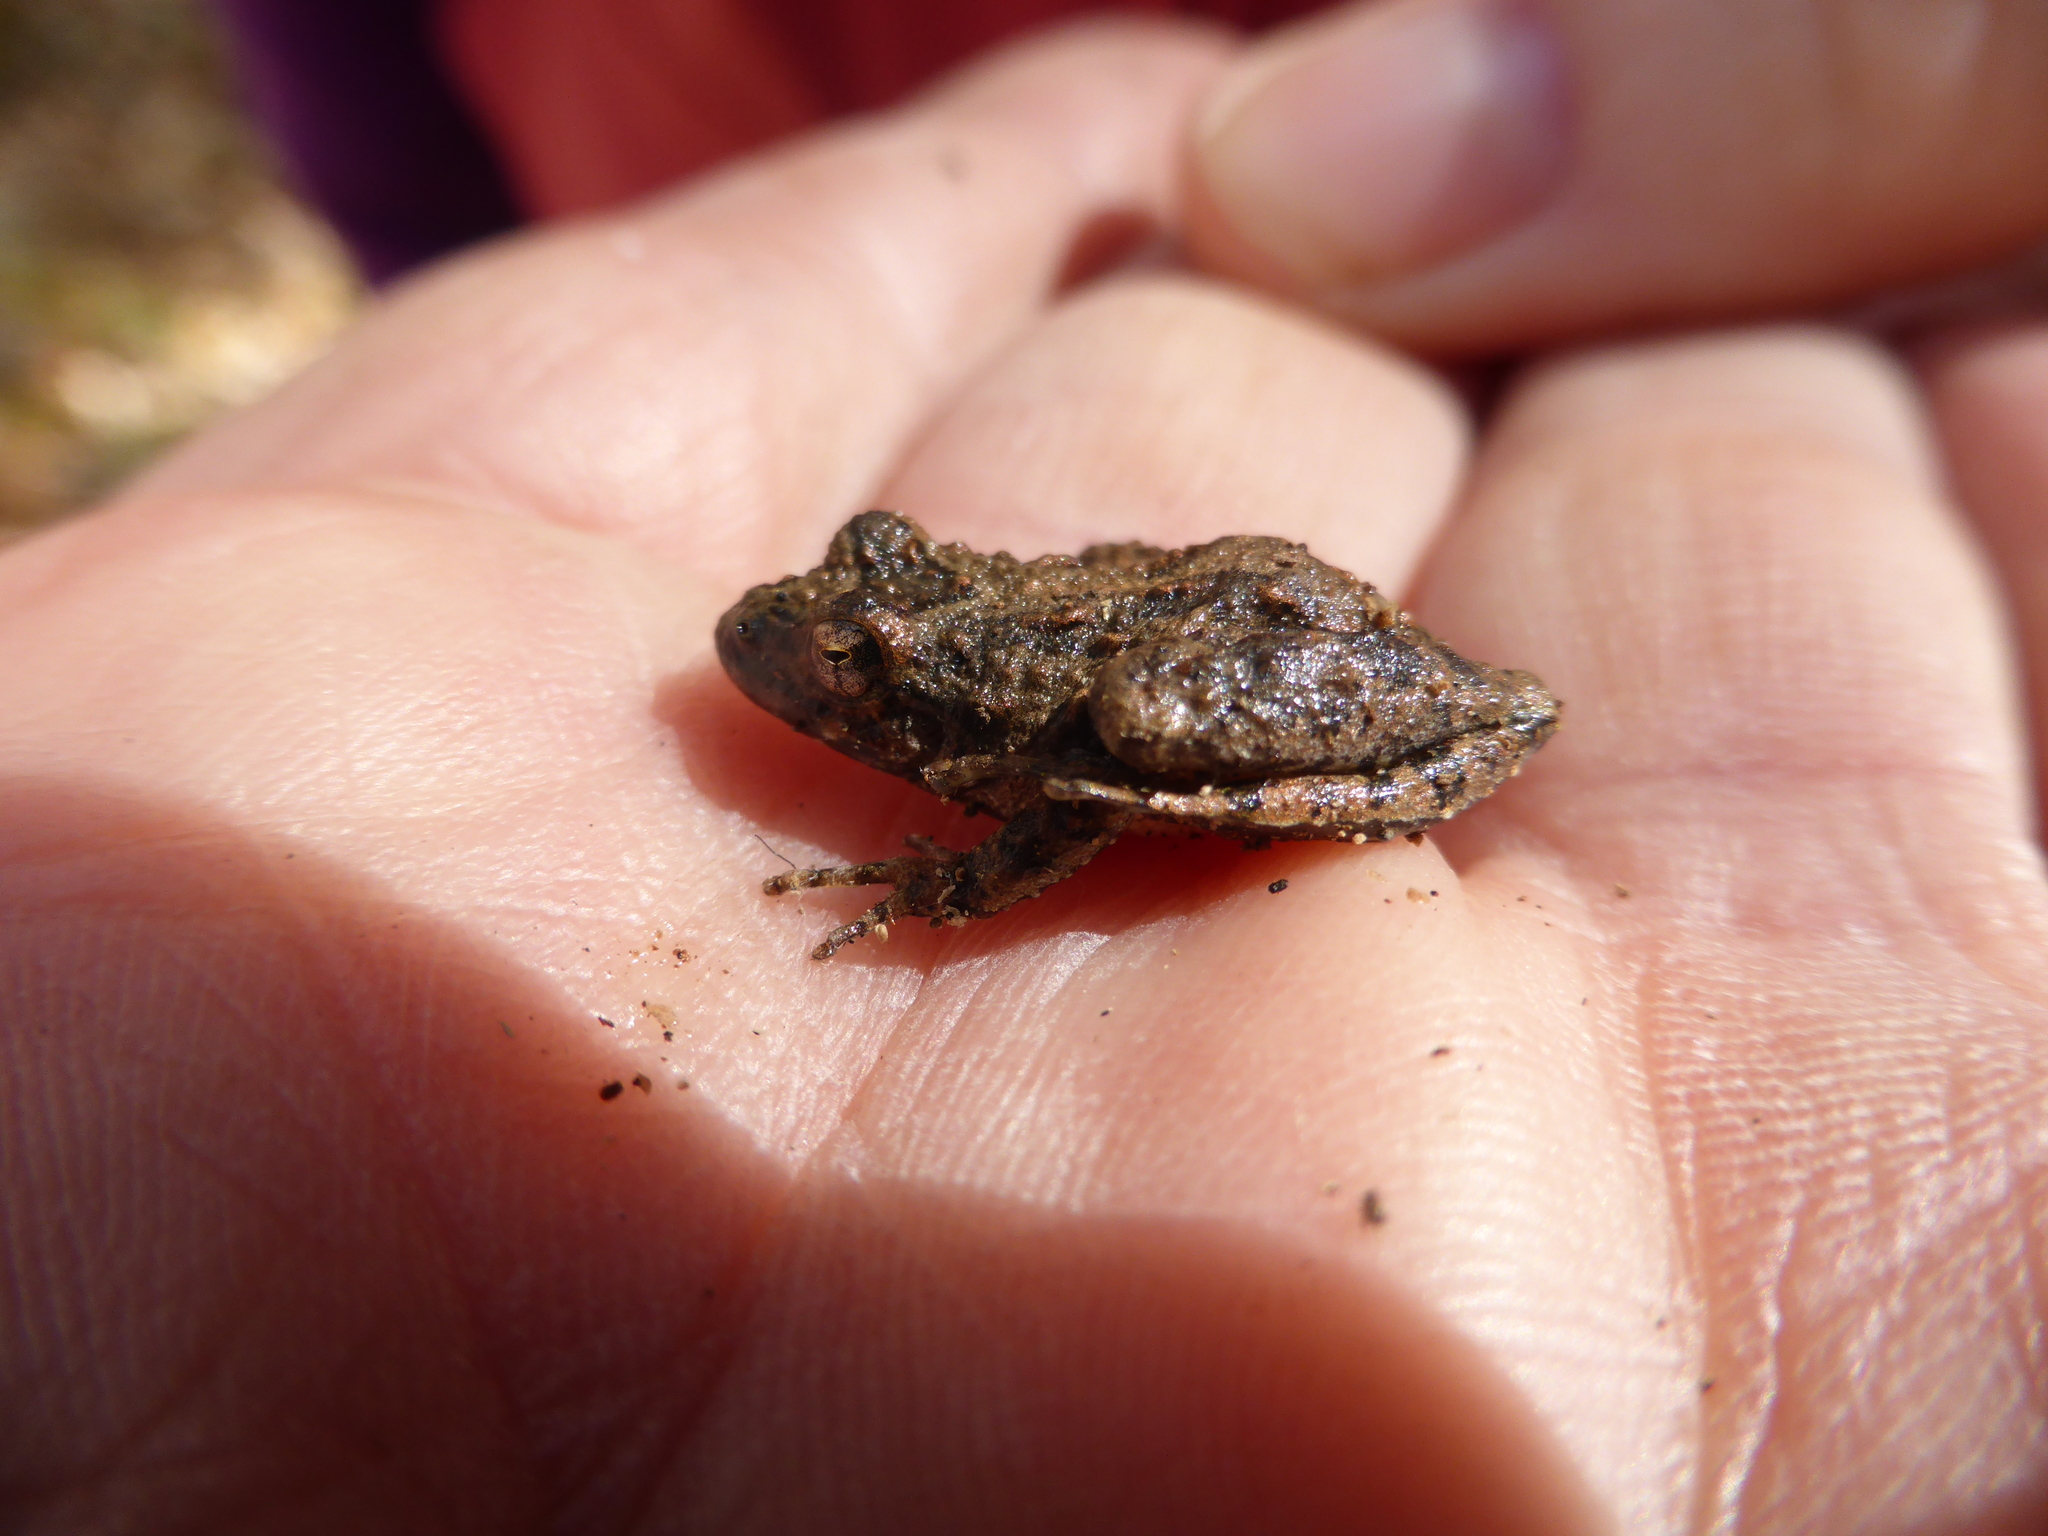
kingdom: Animalia
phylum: Chordata
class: Amphibia
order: Anura
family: Hylidae
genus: Acris
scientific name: Acris blanchardi
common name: Blanchard's cricket frog
